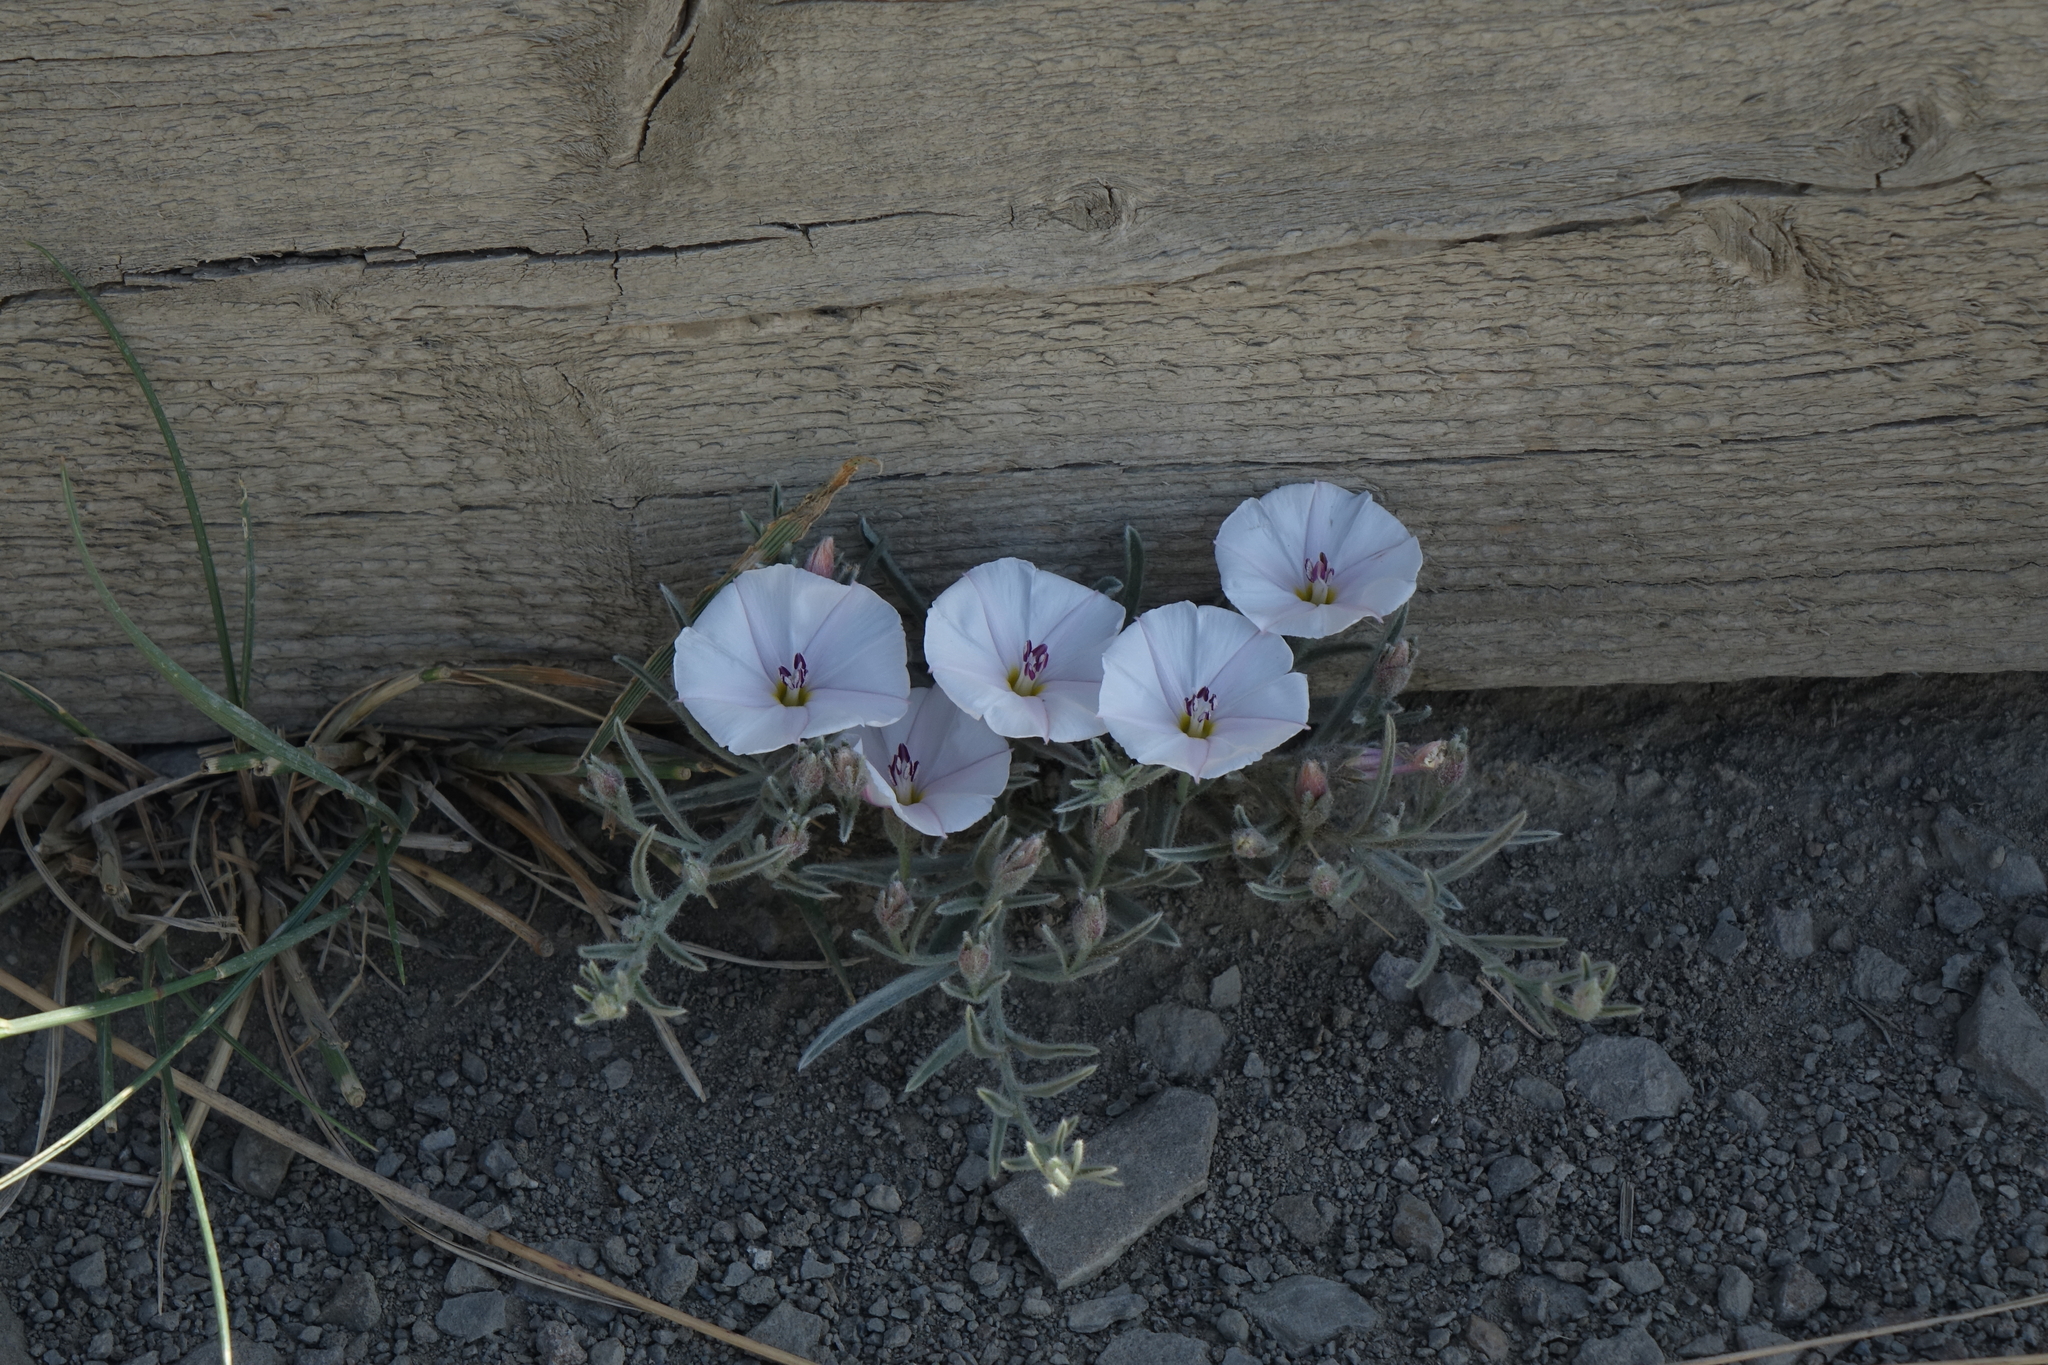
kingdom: Plantae
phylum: Tracheophyta
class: Magnoliopsida
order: Solanales
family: Convolvulaceae
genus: Convolvulus
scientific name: Convolvulus ammannii
